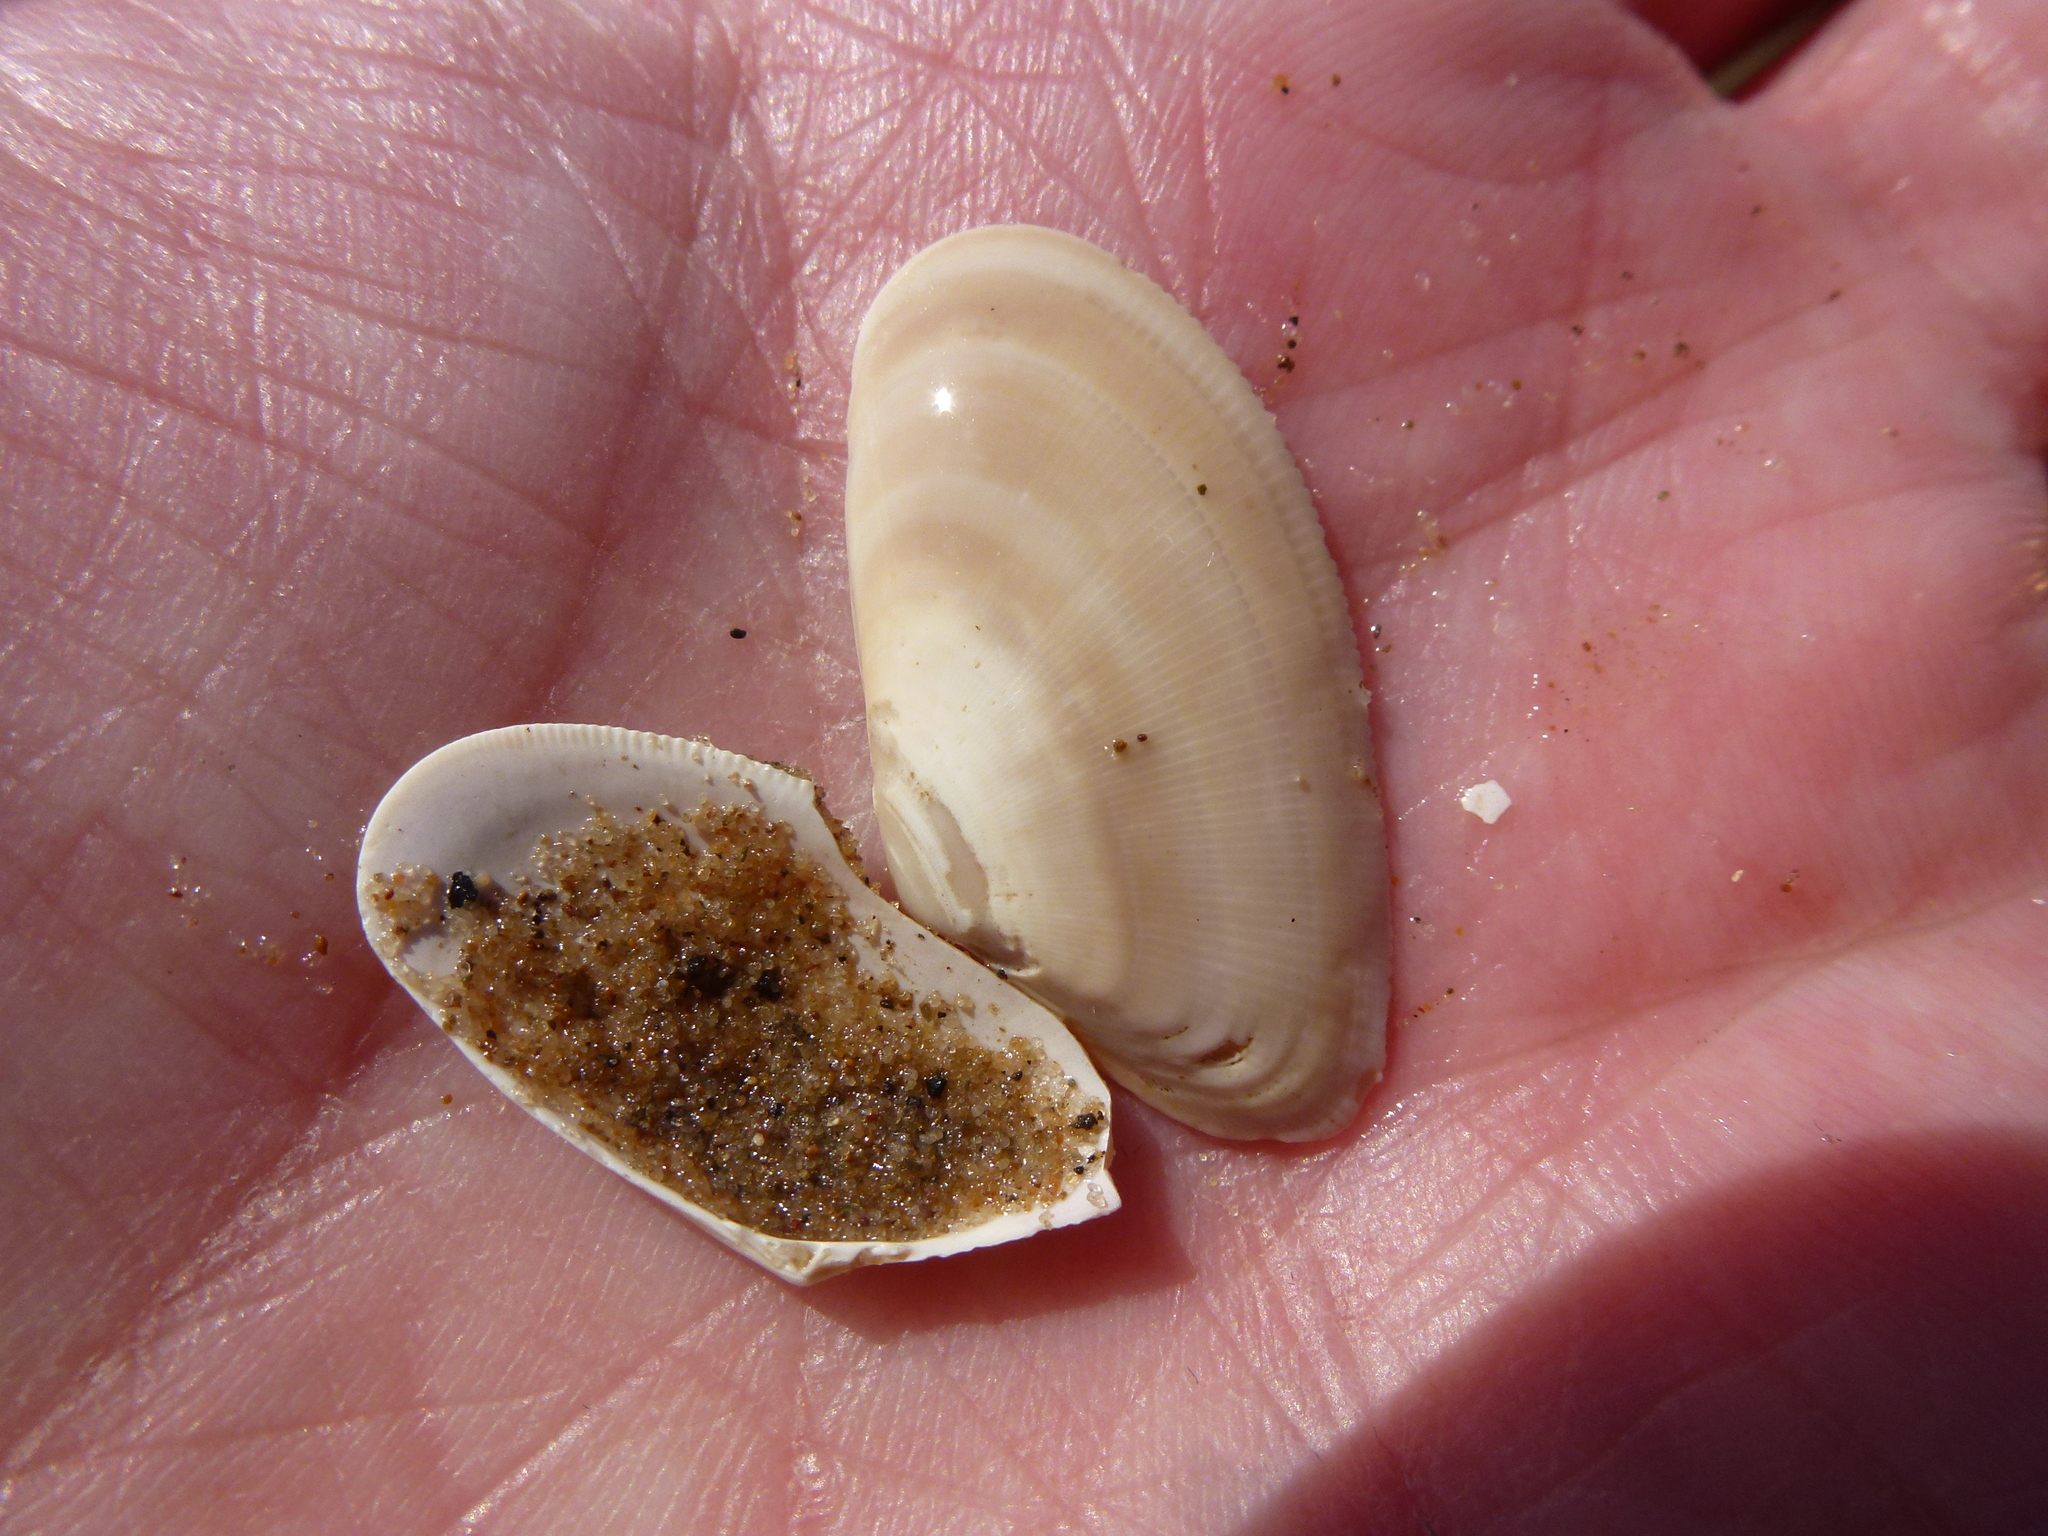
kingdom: Animalia
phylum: Mollusca
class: Bivalvia
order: Cardiida
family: Donacidae
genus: Donax
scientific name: Donax vittatus
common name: Banded wedge-shell
